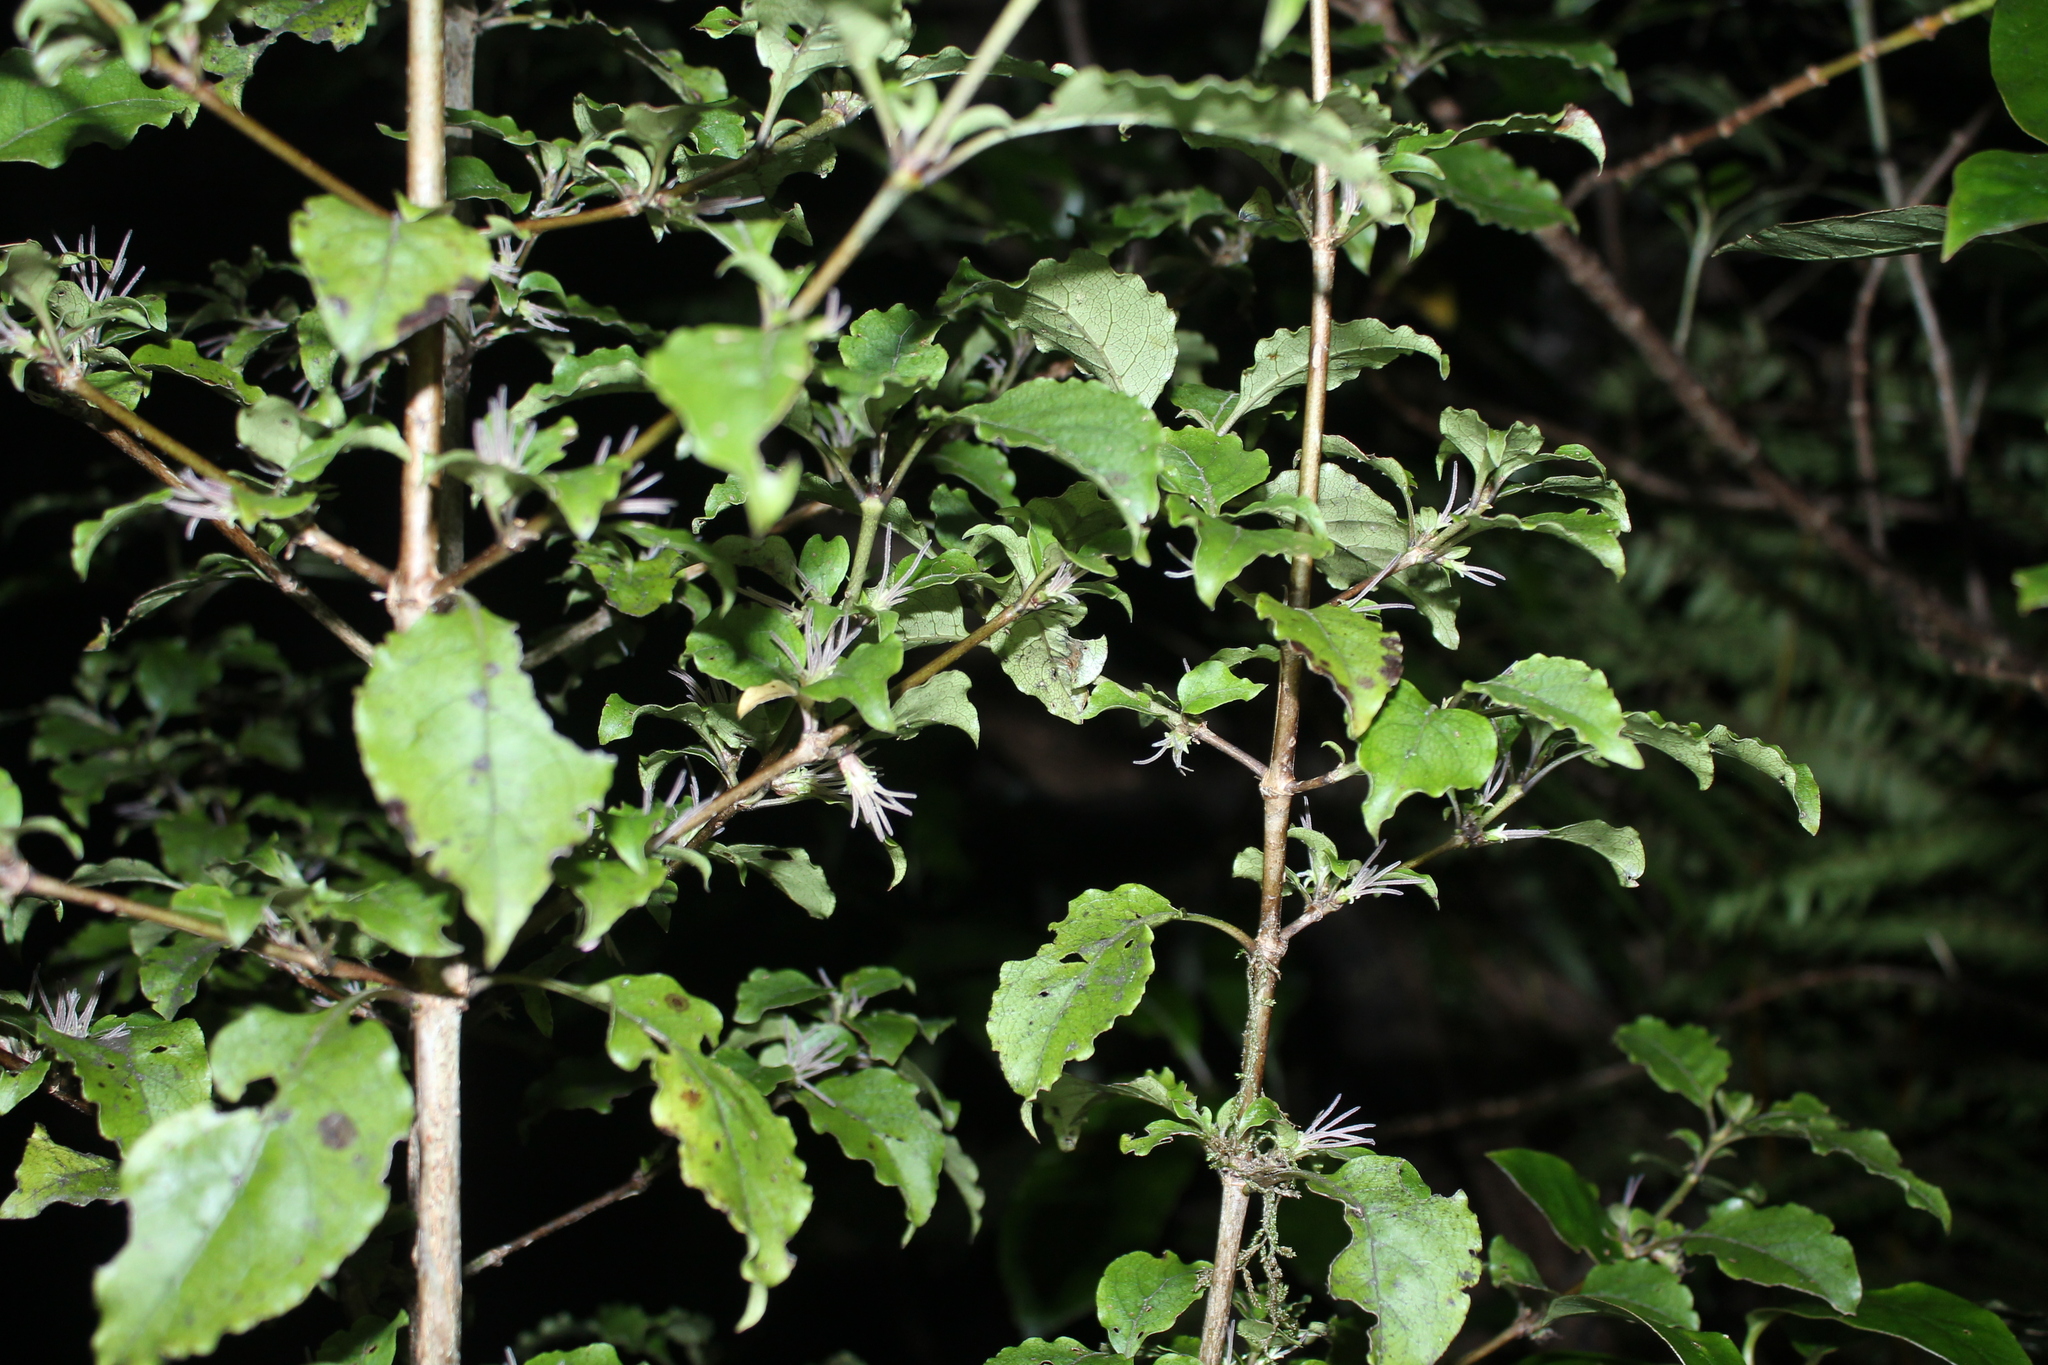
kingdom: Plantae
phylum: Tracheophyta
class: Magnoliopsida
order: Gentianales
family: Rubiaceae
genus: Coprosma
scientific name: Coprosma tenuifolia
